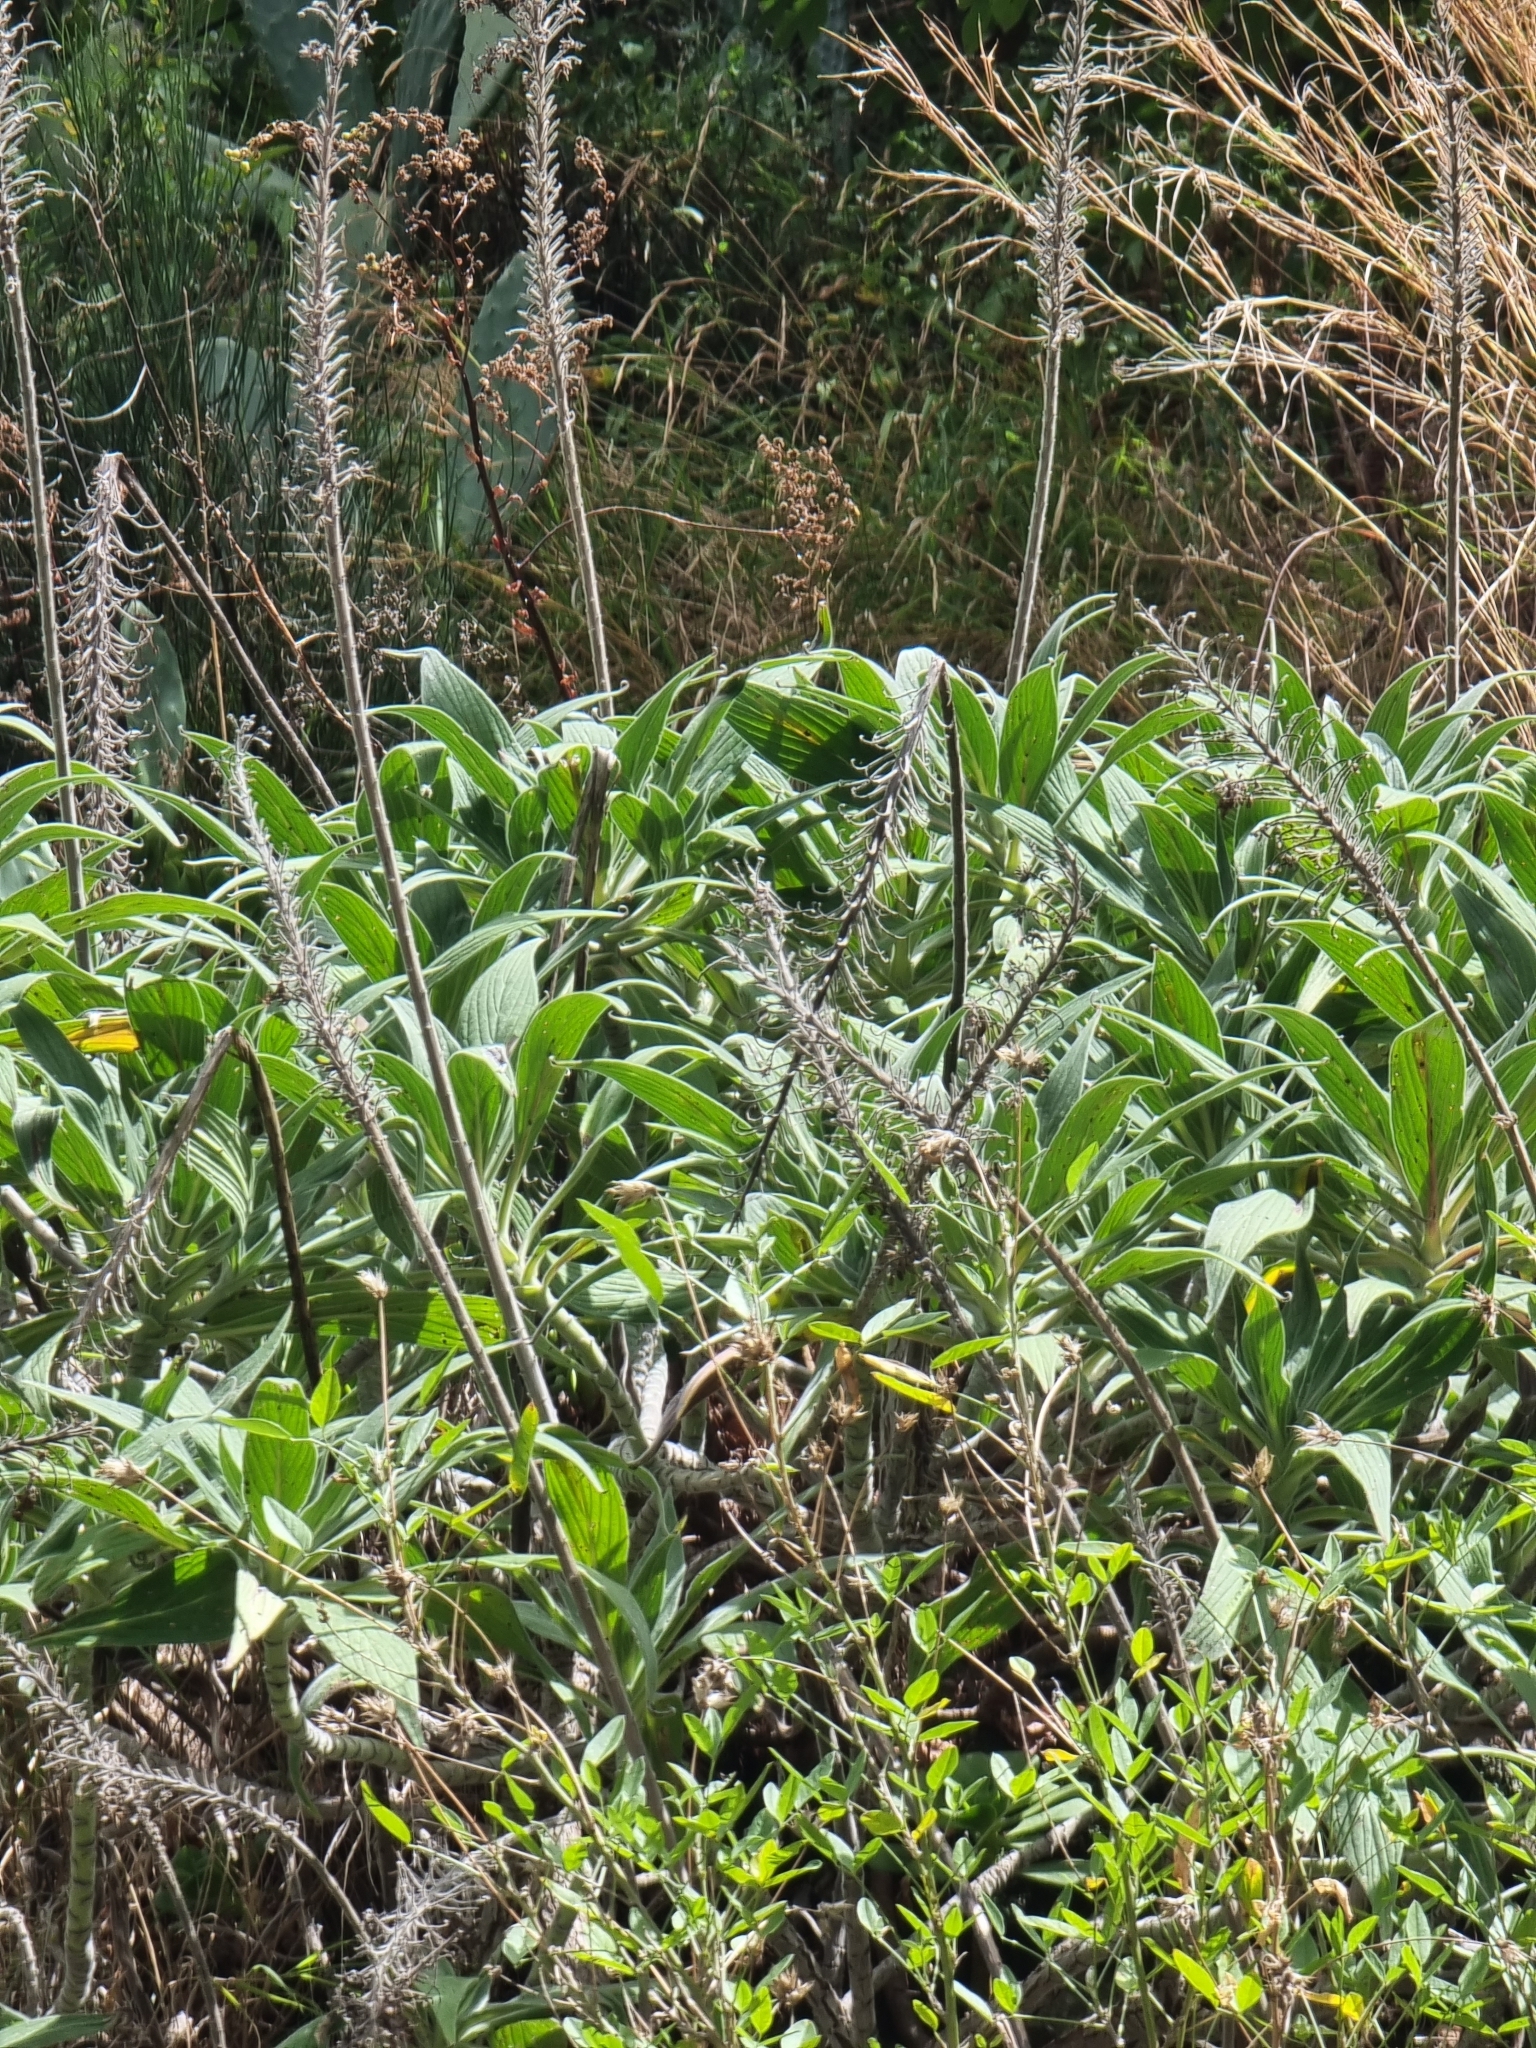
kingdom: Plantae
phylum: Tracheophyta
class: Magnoliopsida
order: Boraginales
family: Boraginaceae
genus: Echium
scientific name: Echium candicans
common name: Pride of madeira
